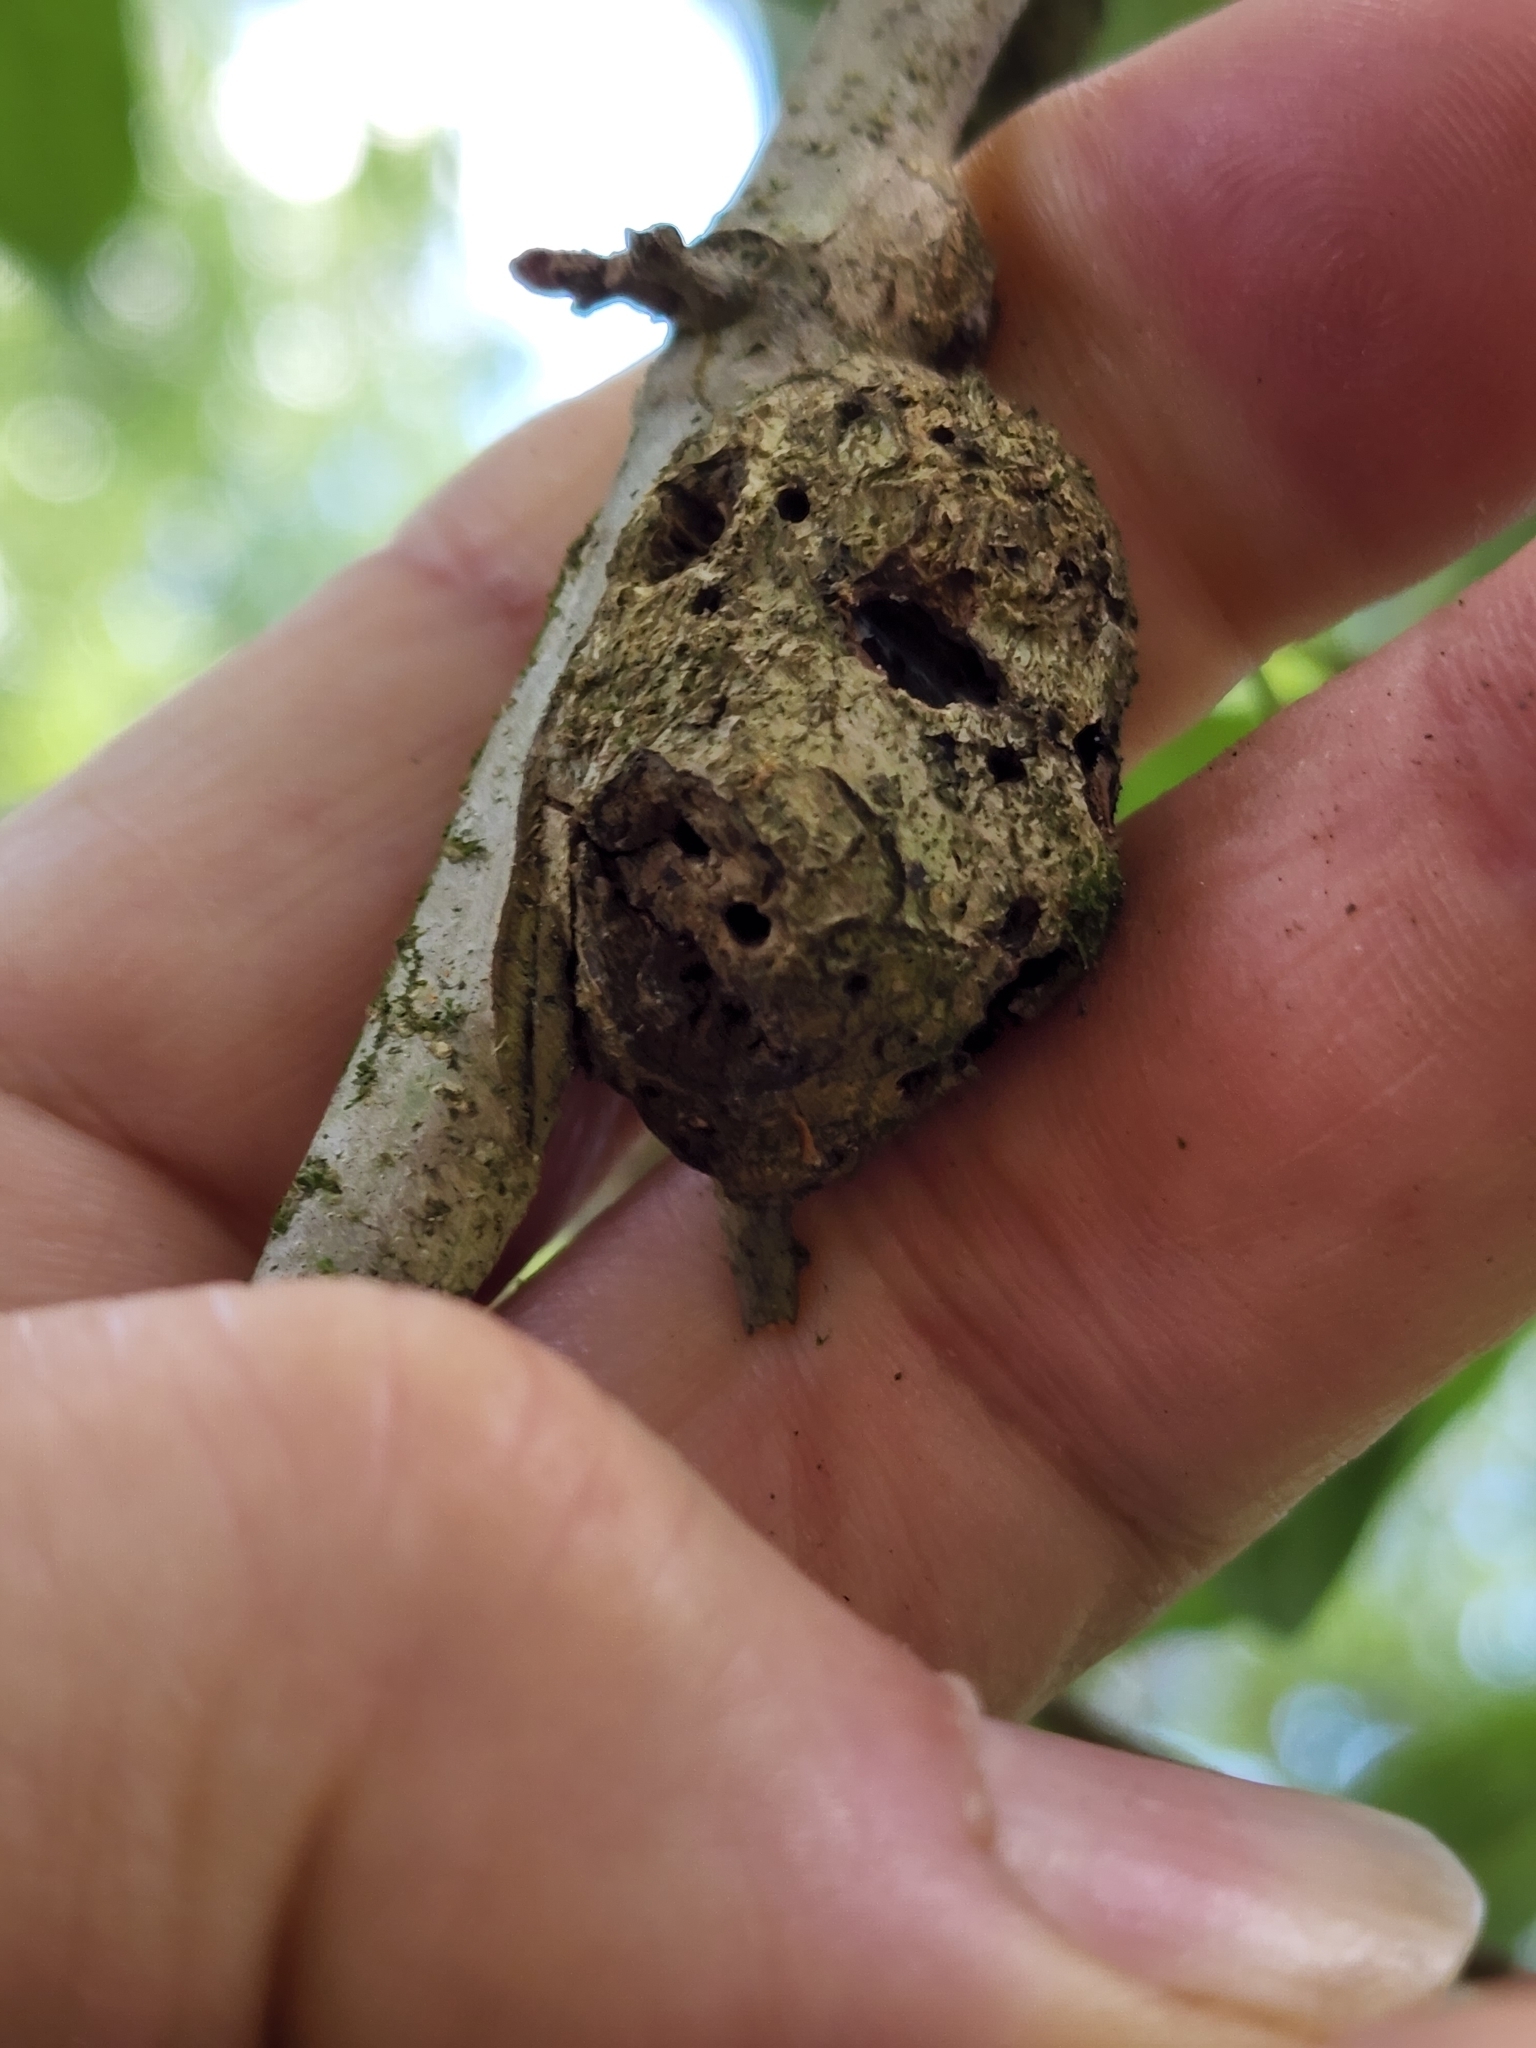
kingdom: Animalia
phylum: Arthropoda
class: Insecta
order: Hymenoptera
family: Cynipidae
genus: Callirhytis
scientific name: Callirhytis
